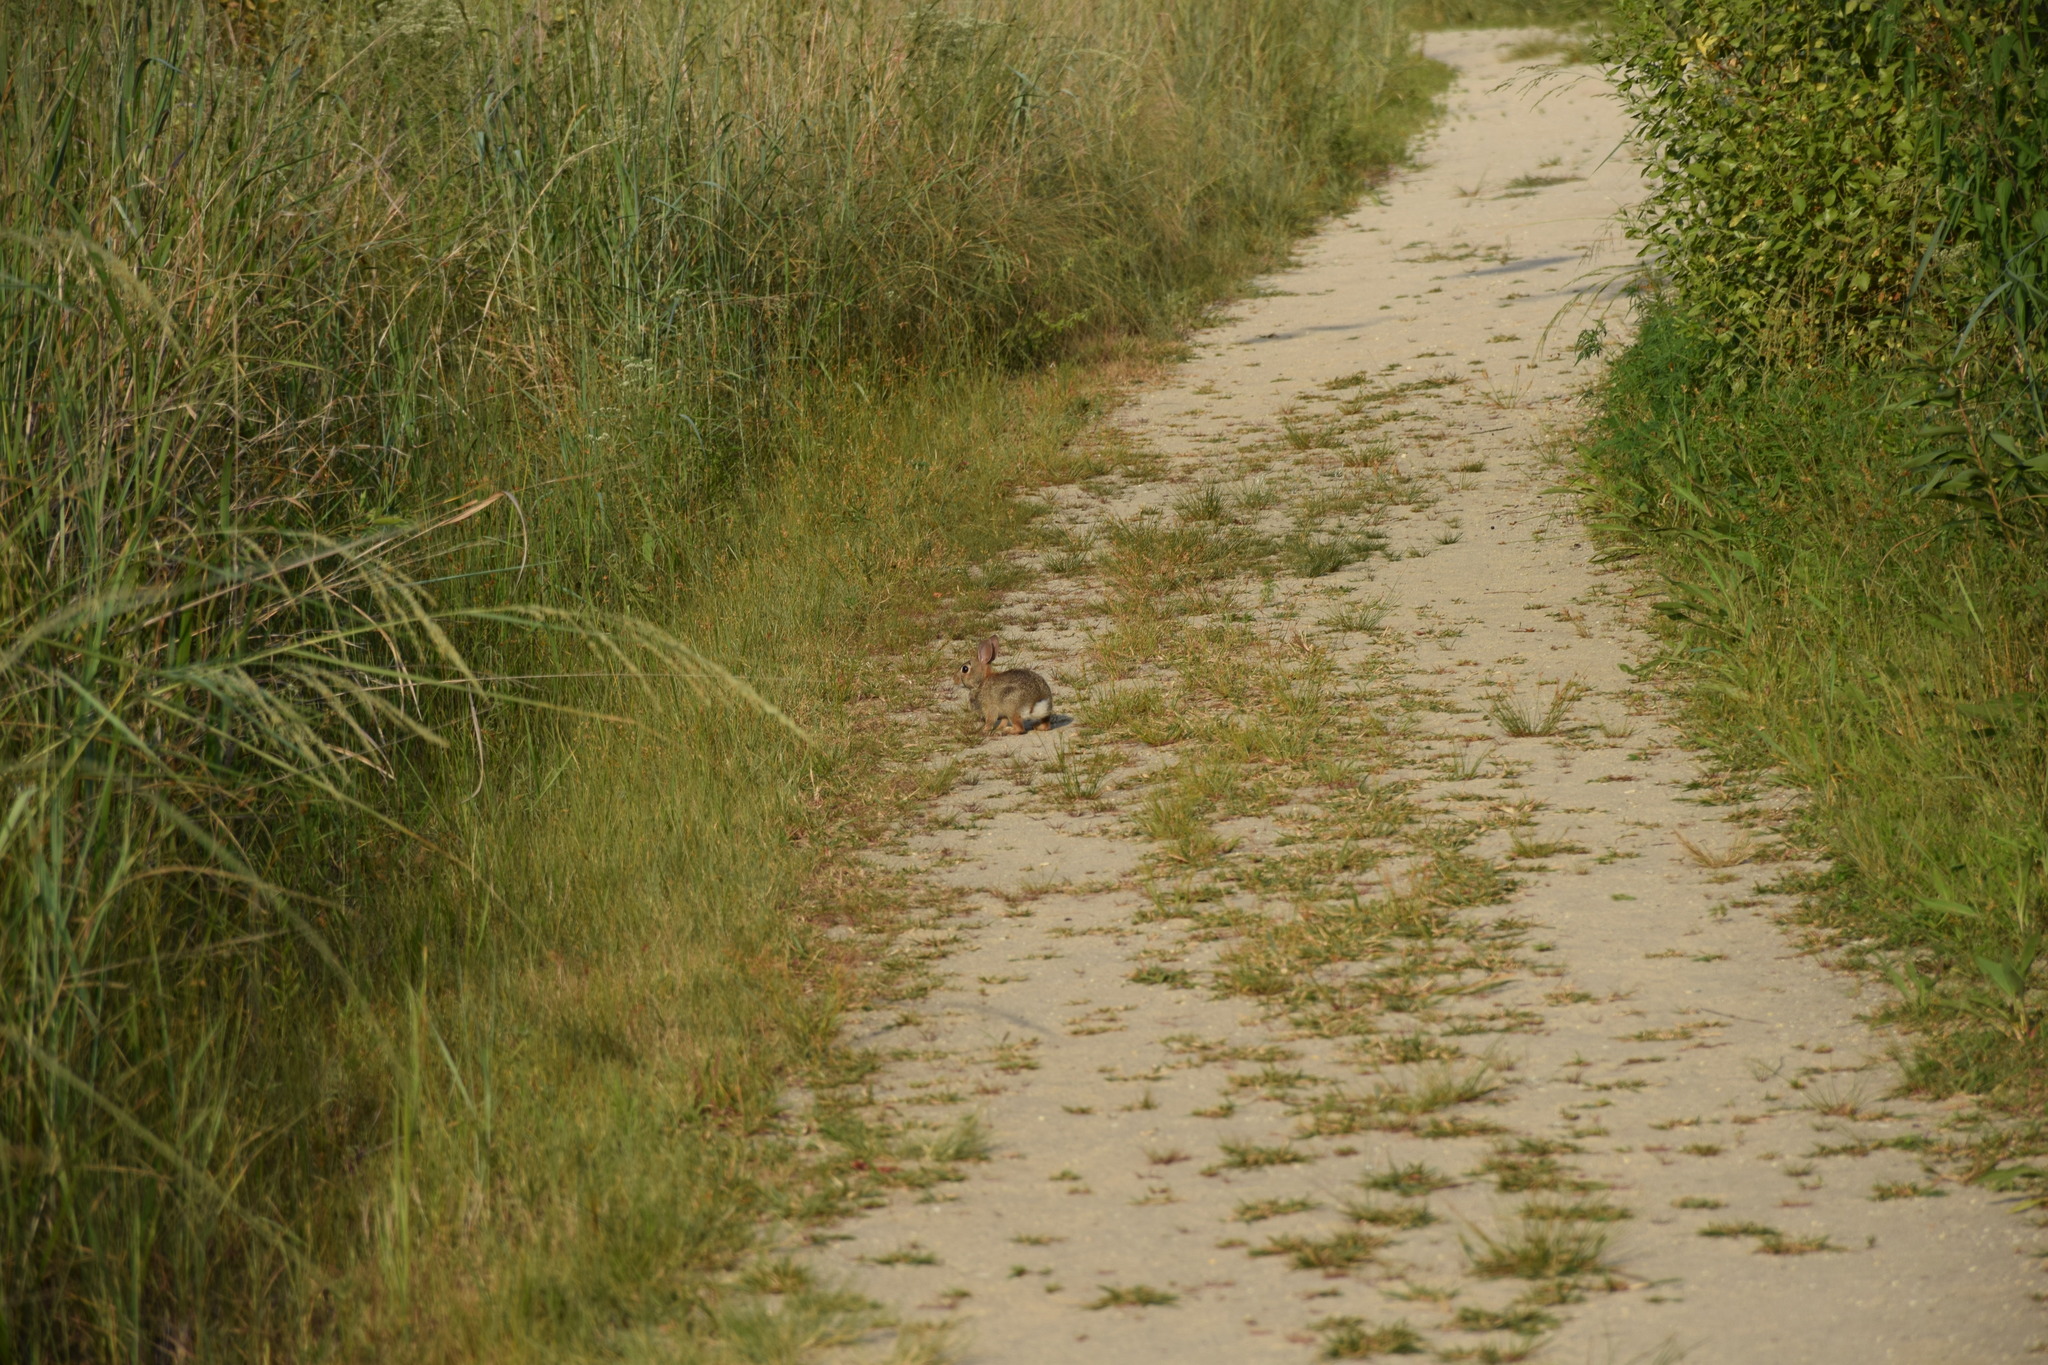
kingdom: Animalia
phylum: Chordata
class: Mammalia
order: Lagomorpha
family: Leporidae
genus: Sylvilagus
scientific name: Sylvilagus floridanus
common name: Eastern cottontail
